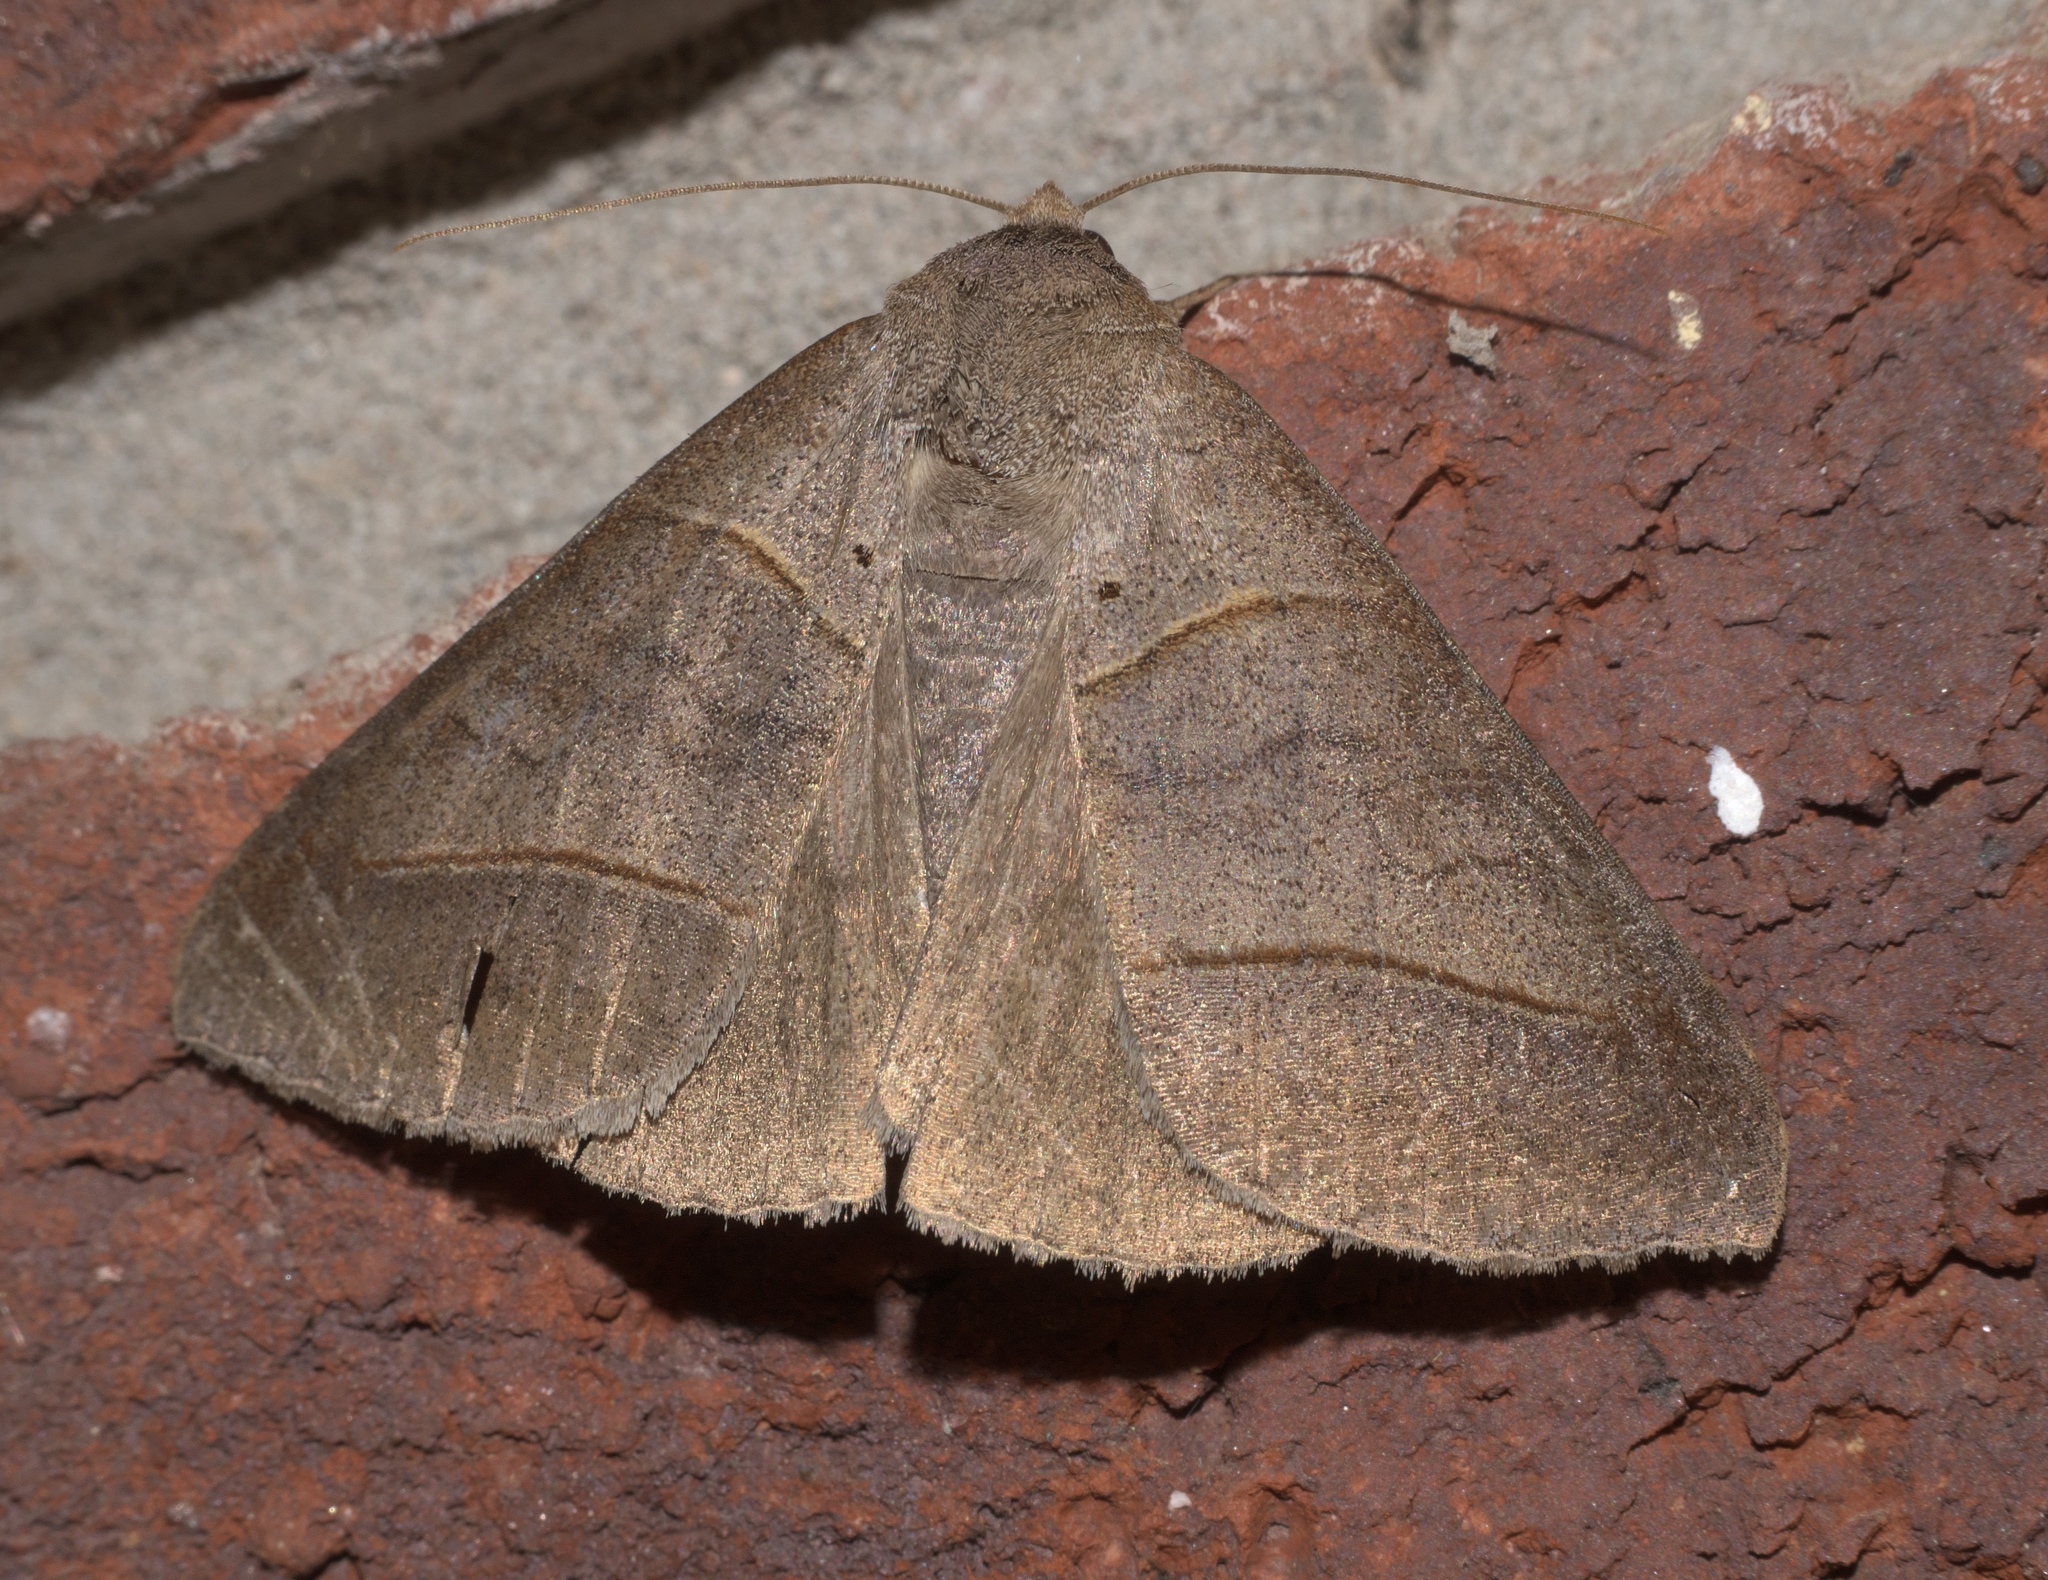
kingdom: Animalia
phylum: Arthropoda
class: Insecta
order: Lepidoptera
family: Erebidae
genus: Mocis
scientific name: Mocis texana
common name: Texas mocis moth
